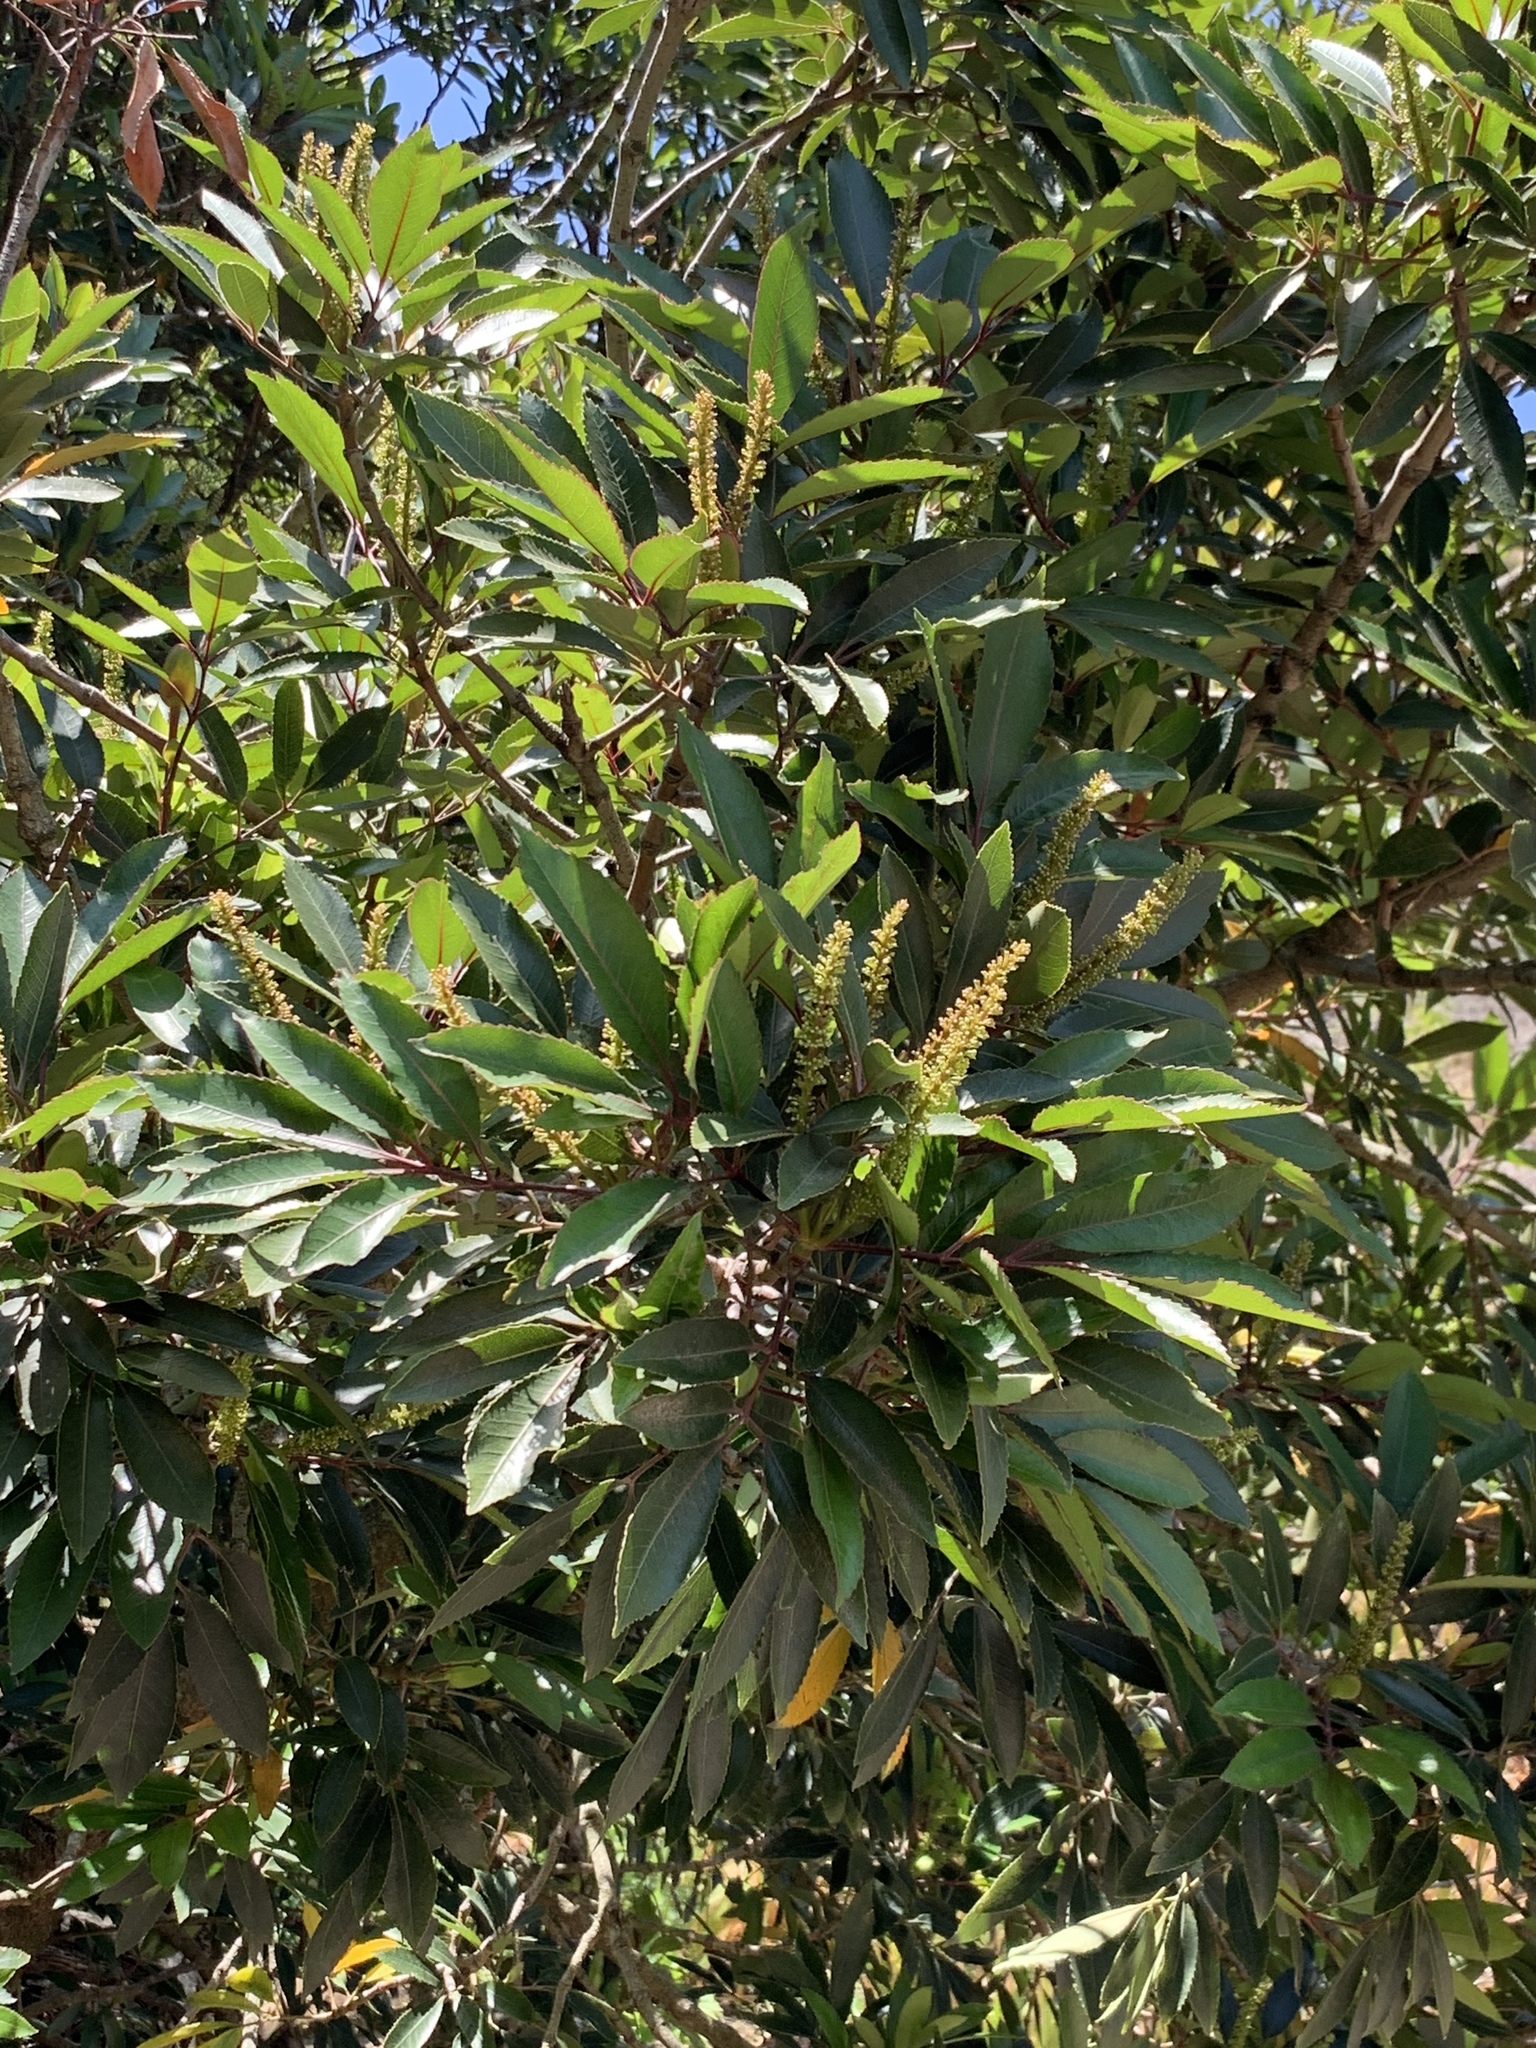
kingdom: Plantae
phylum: Tracheophyta
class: Magnoliopsida
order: Oxalidales
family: Cunoniaceae
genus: Cunonia
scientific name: Cunonia capensis
